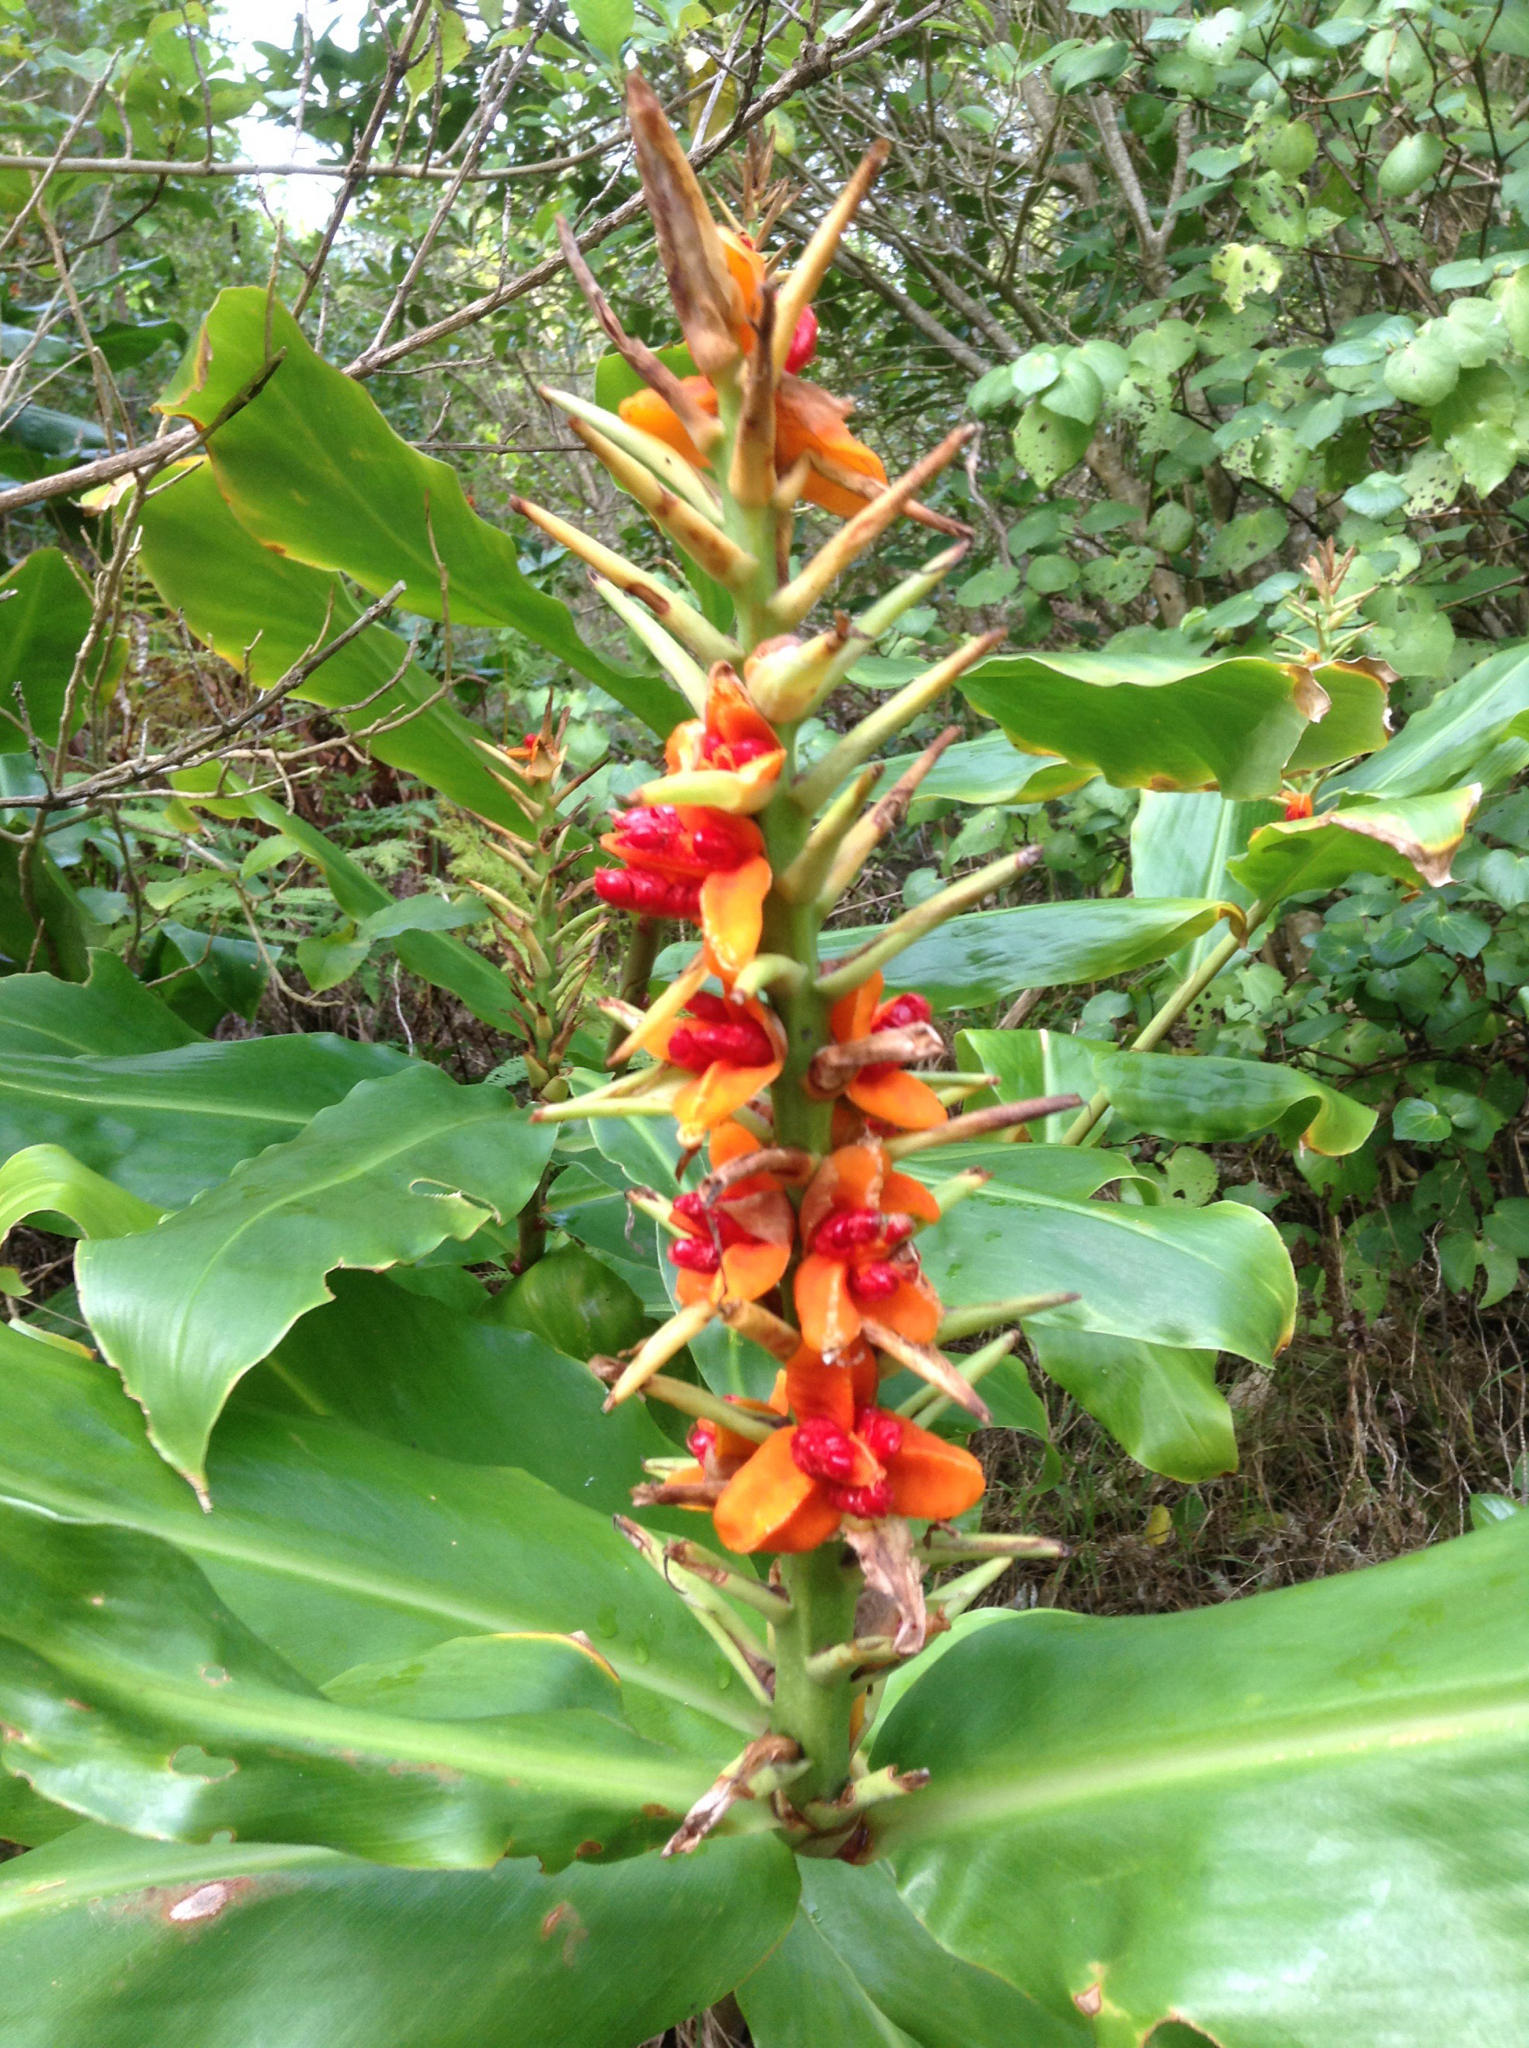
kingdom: Plantae
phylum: Tracheophyta
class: Liliopsida
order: Zingiberales
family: Zingiberaceae
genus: Hedychium
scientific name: Hedychium gardnerianum
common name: Himalayan ginger
